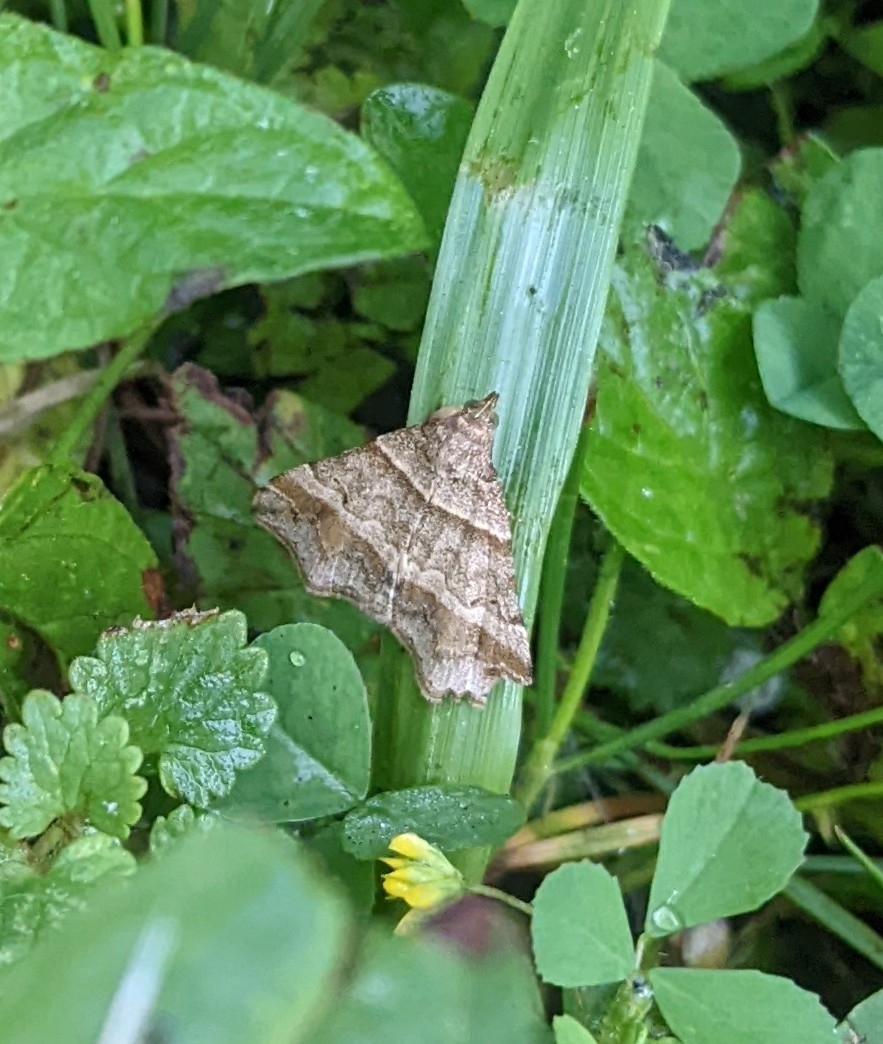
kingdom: Animalia
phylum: Arthropoda
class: Insecta
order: Lepidoptera
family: Erebidae
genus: Phaeolita
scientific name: Phaeolita pyramusalis
